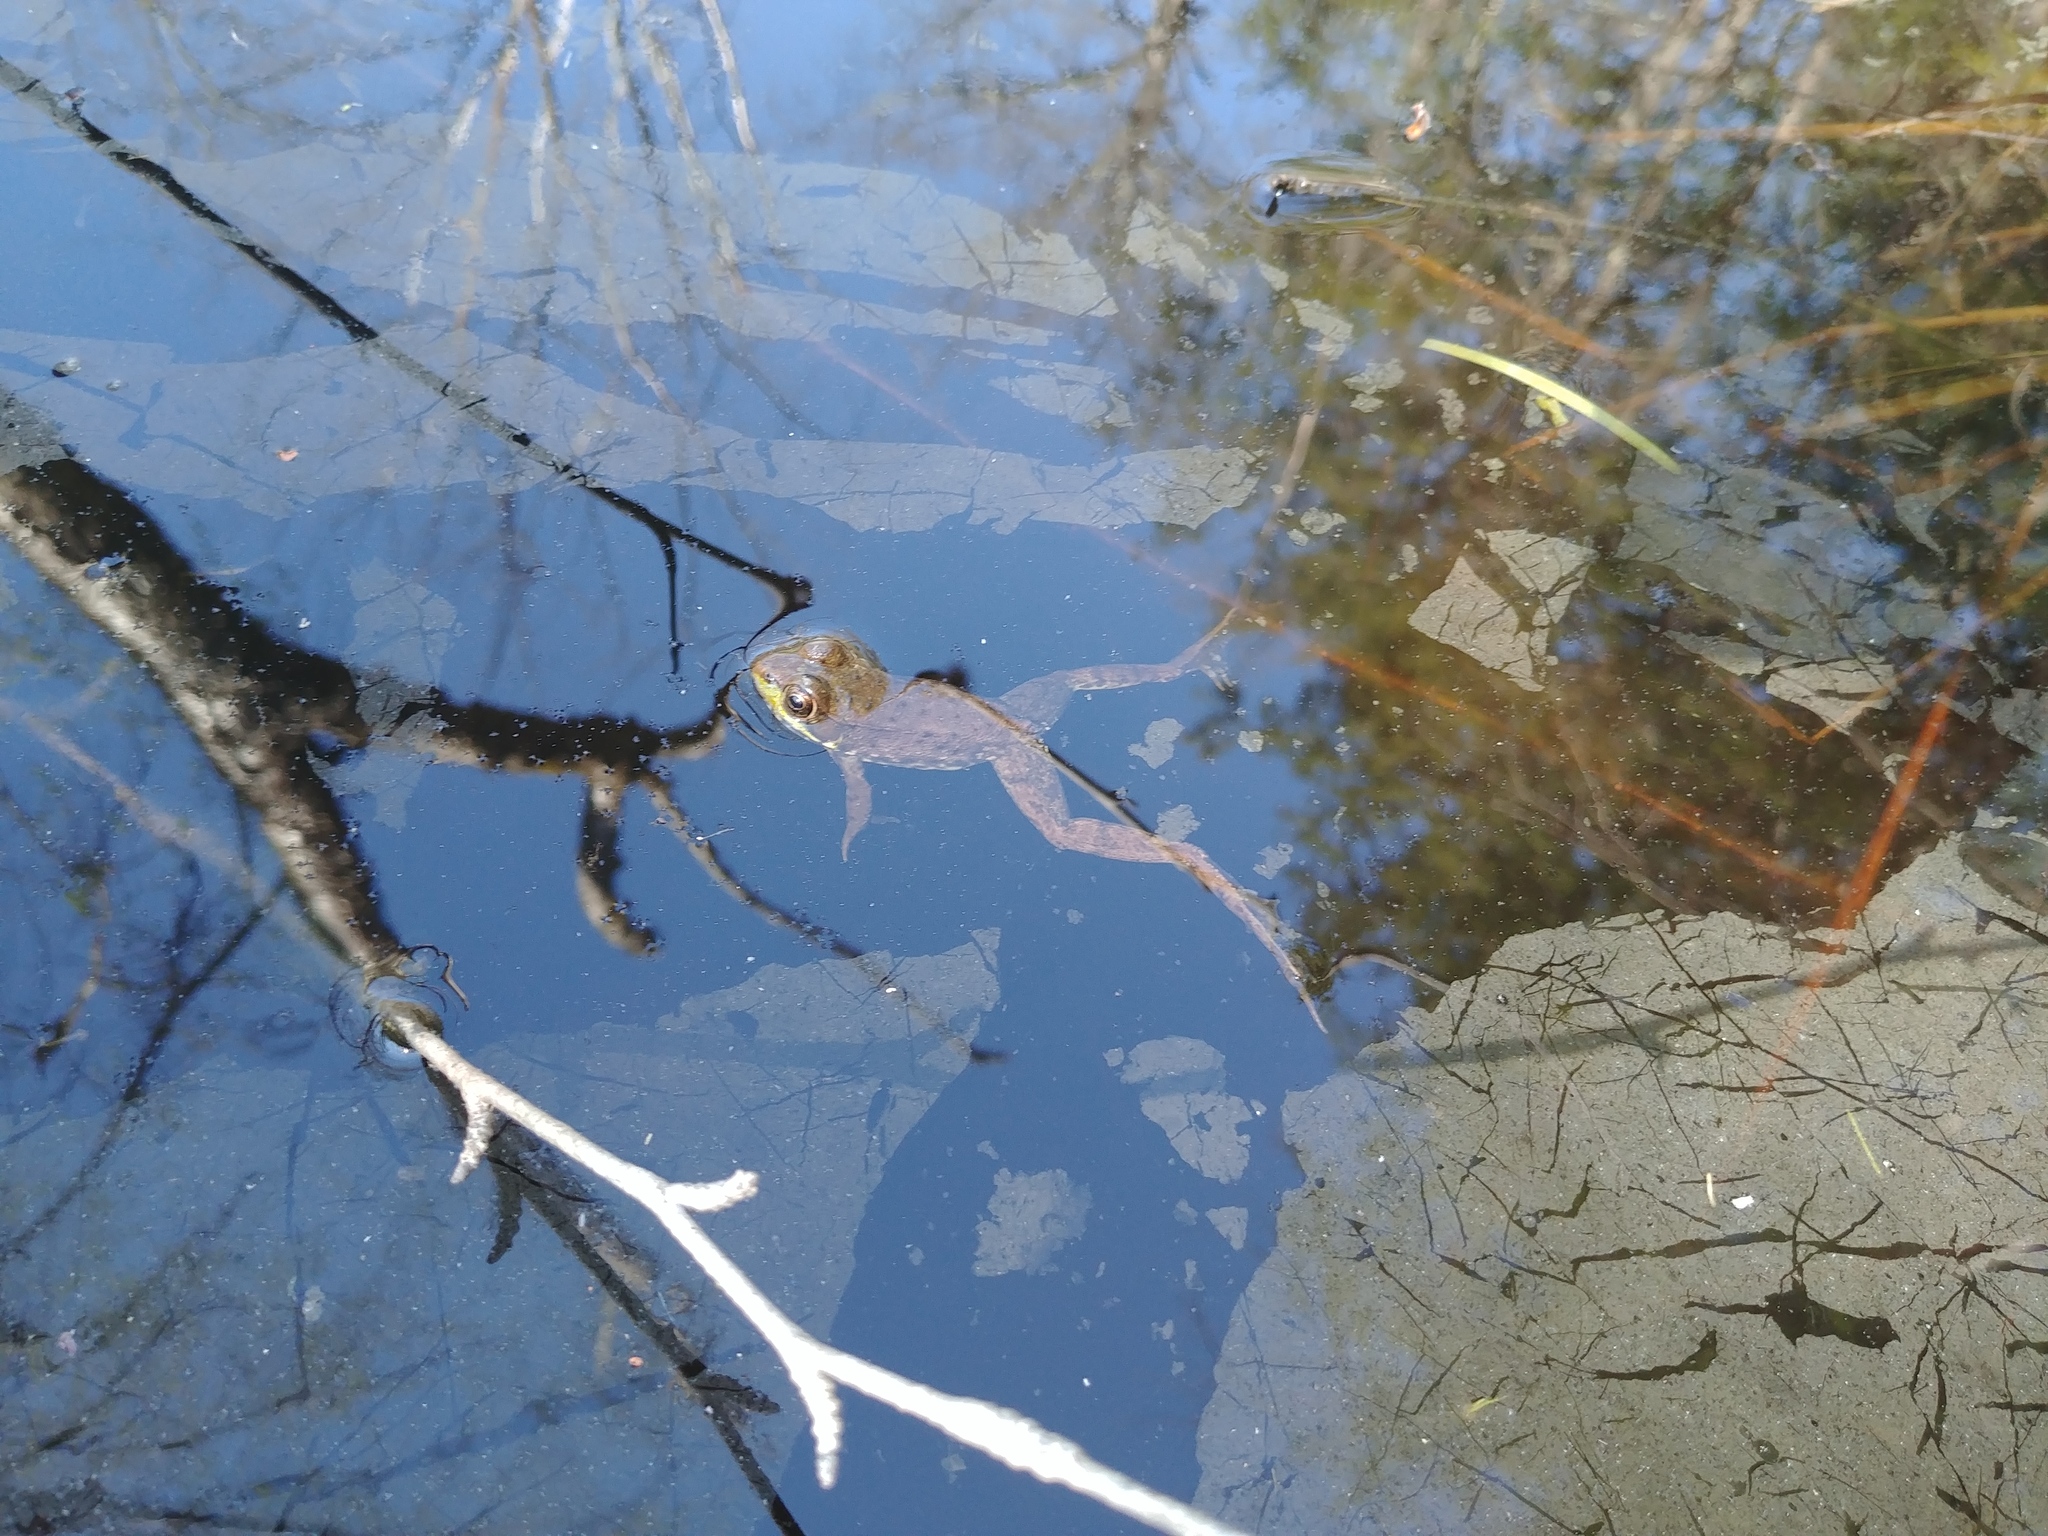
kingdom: Animalia
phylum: Chordata
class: Amphibia
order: Anura
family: Ranidae
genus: Lithobates
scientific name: Lithobates clamitans
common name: Green frog
